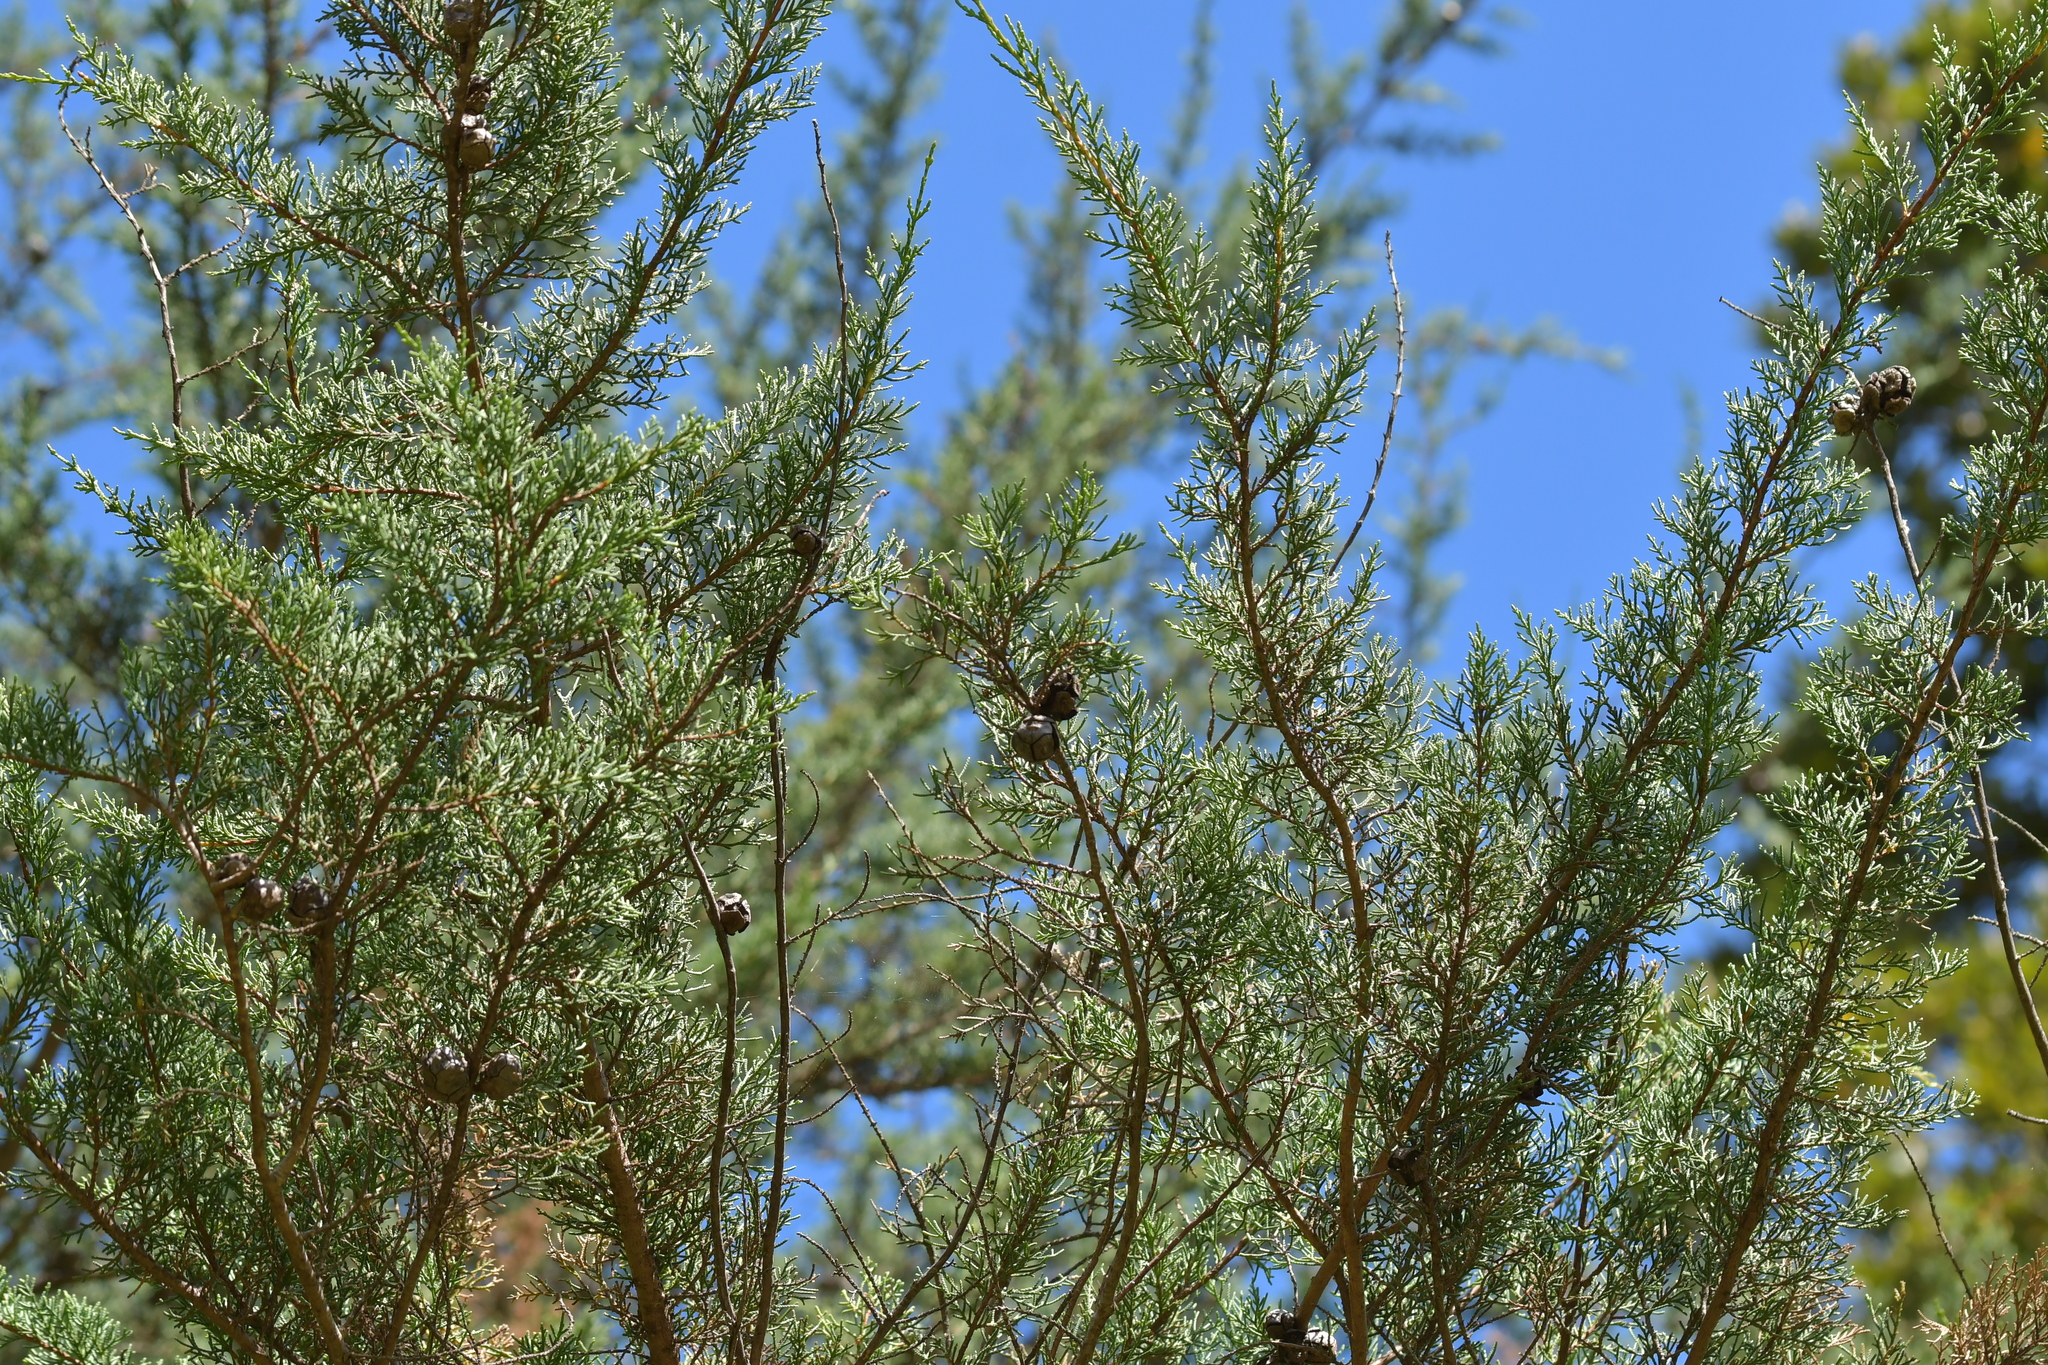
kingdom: Plantae
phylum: Tracheophyta
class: Pinopsida
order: Pinales
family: Cupressaceae
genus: Cupressus
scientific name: Cupressus macrocarpa
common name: Monterey cypress
